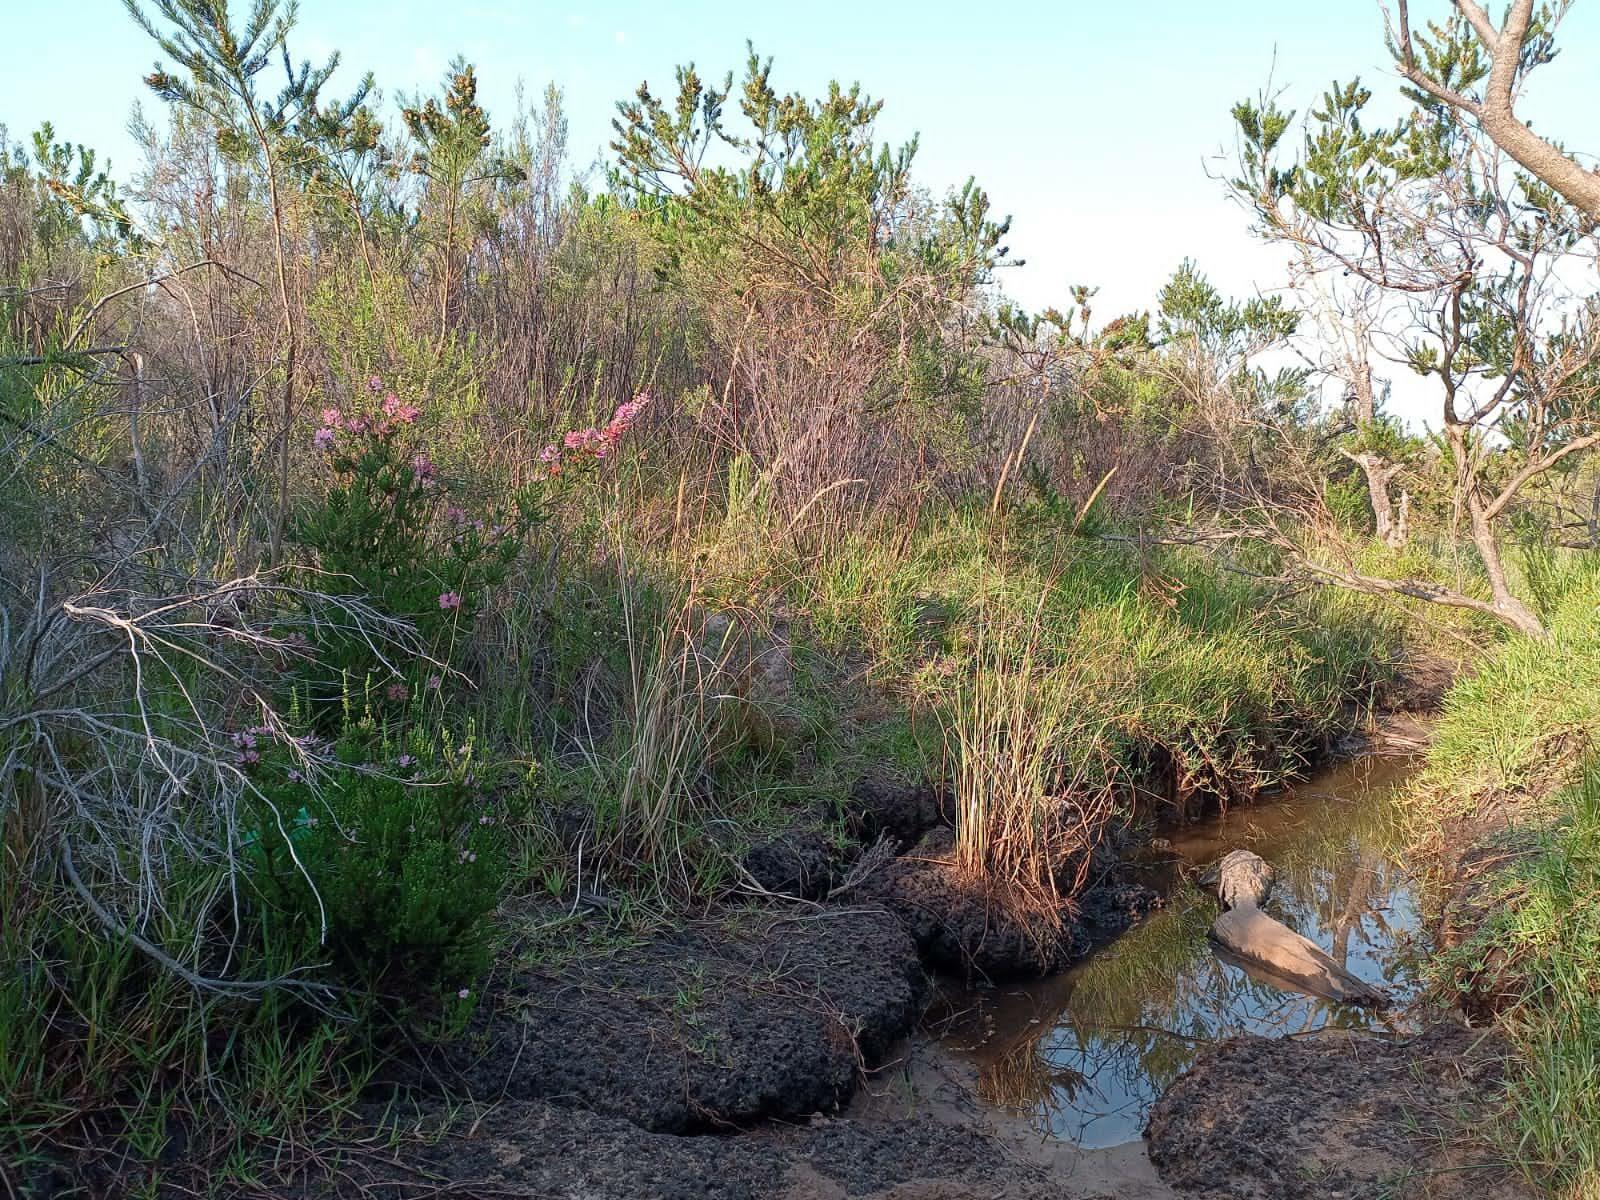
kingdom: Plantae
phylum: Tracheophyta
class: Magnoliopsida
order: Ericales
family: Ericaceae
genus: Erica
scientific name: Erica verticillata
